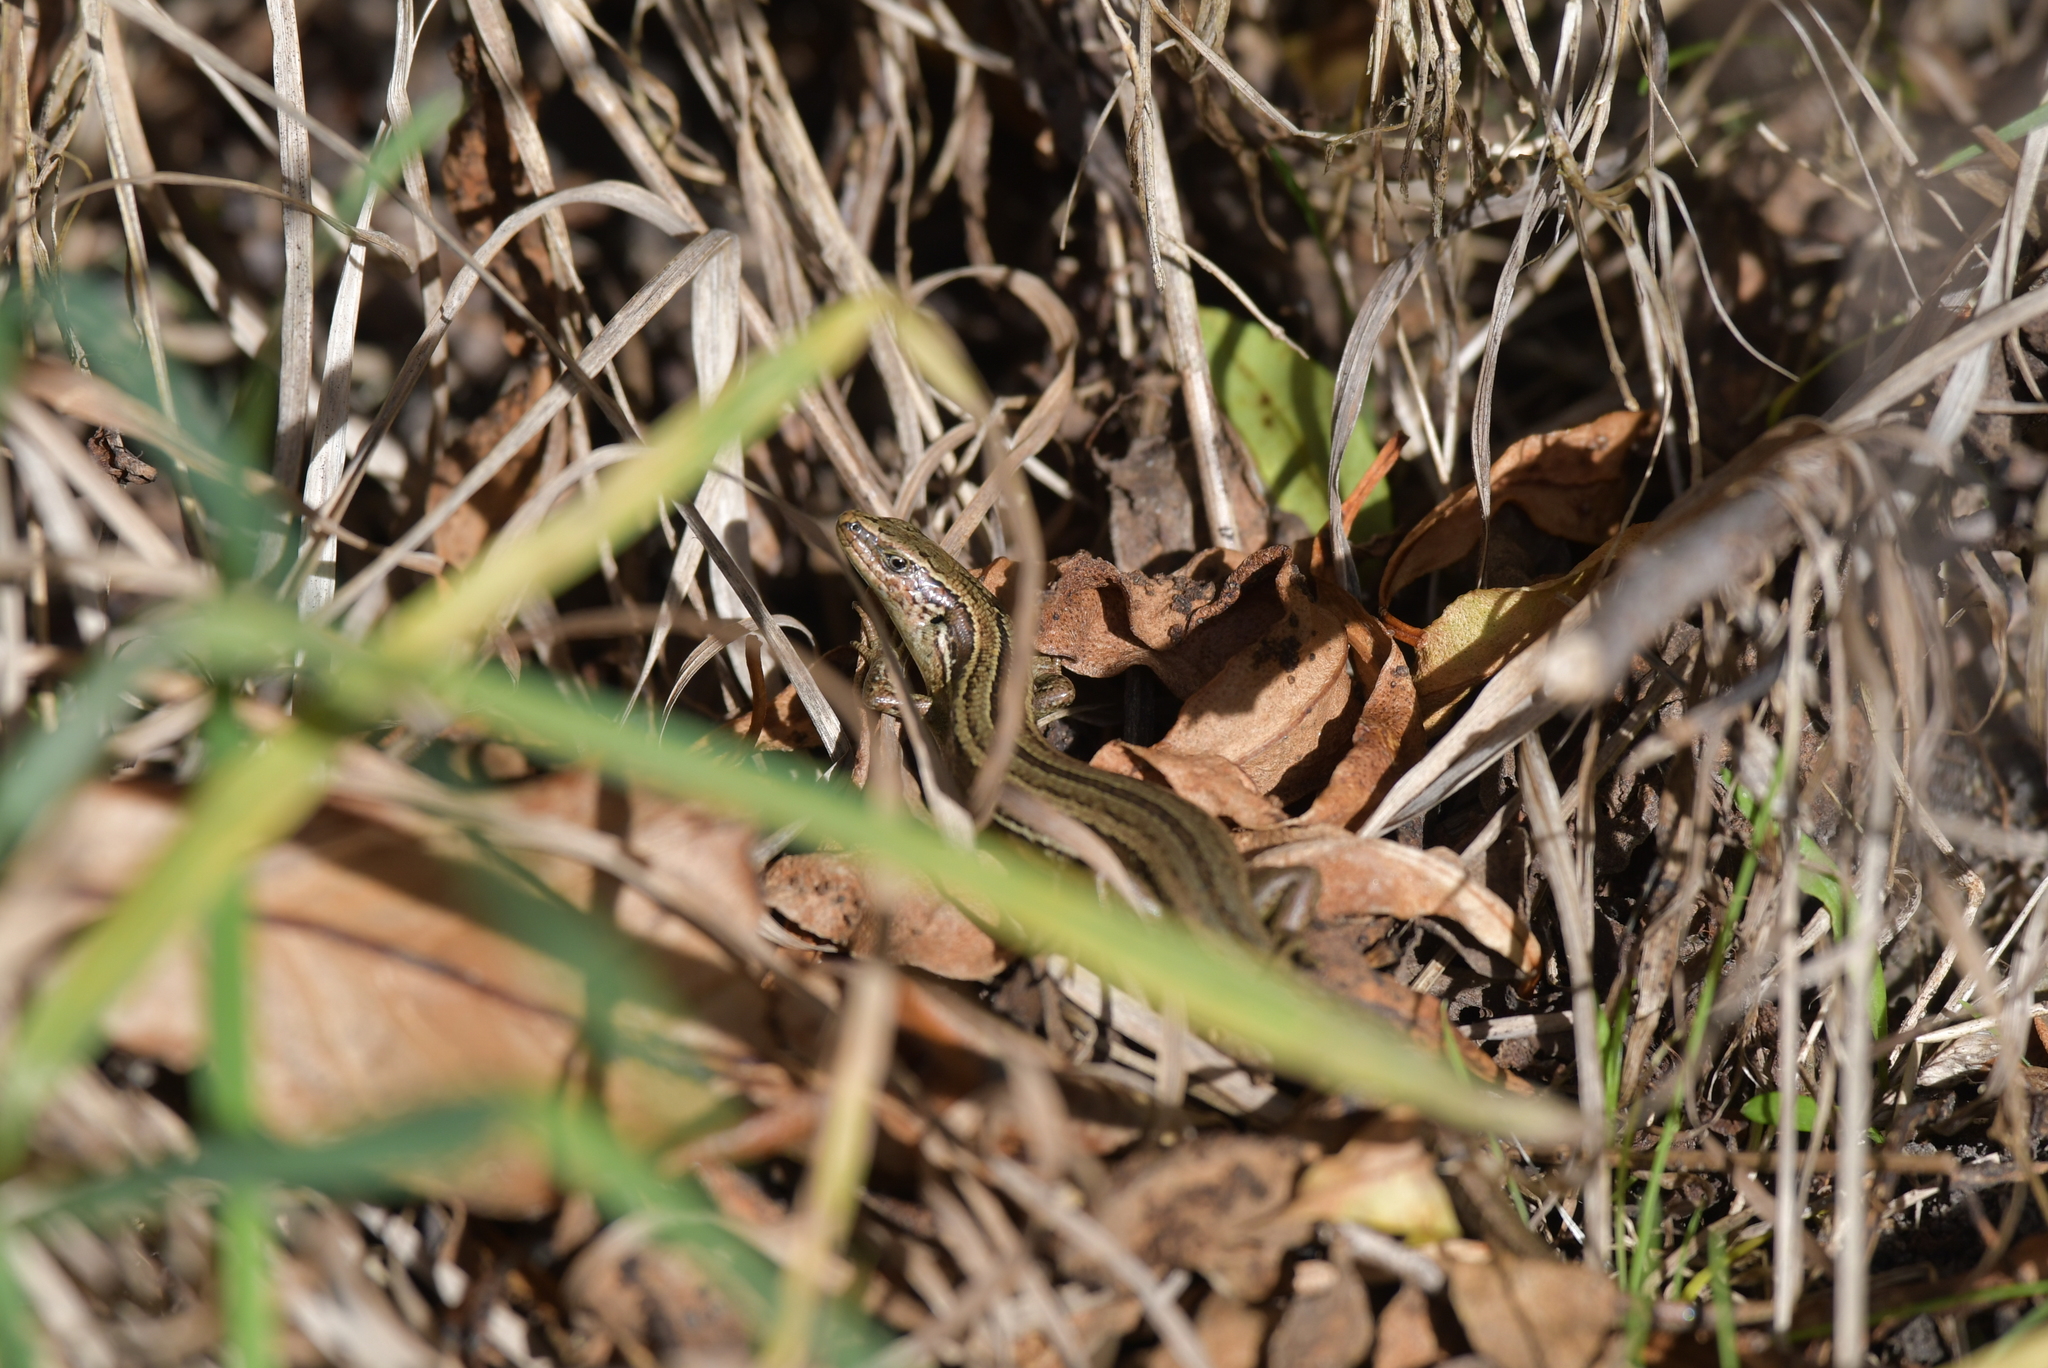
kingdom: Animalia
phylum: Chordata
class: Squamata
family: Scincidae
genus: Oligosoma
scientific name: Oligosoma polychroma
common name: Common new zealand skink
